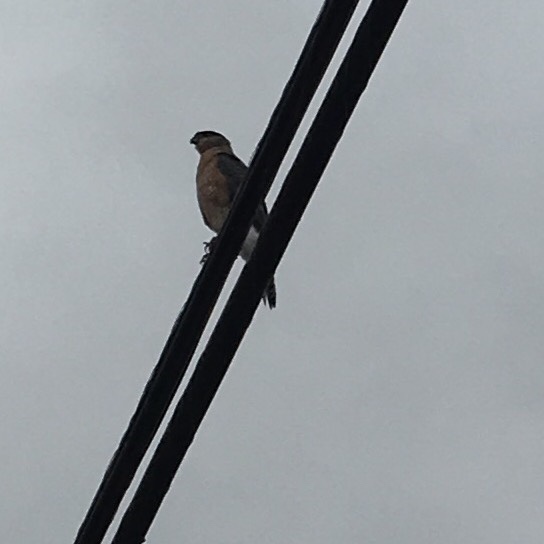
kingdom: Animalia
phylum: Chordata
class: Aves
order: Accipitriformes
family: Accipitridae
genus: Accipiter
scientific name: Accipiter cooperii
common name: Cooper's hawk
